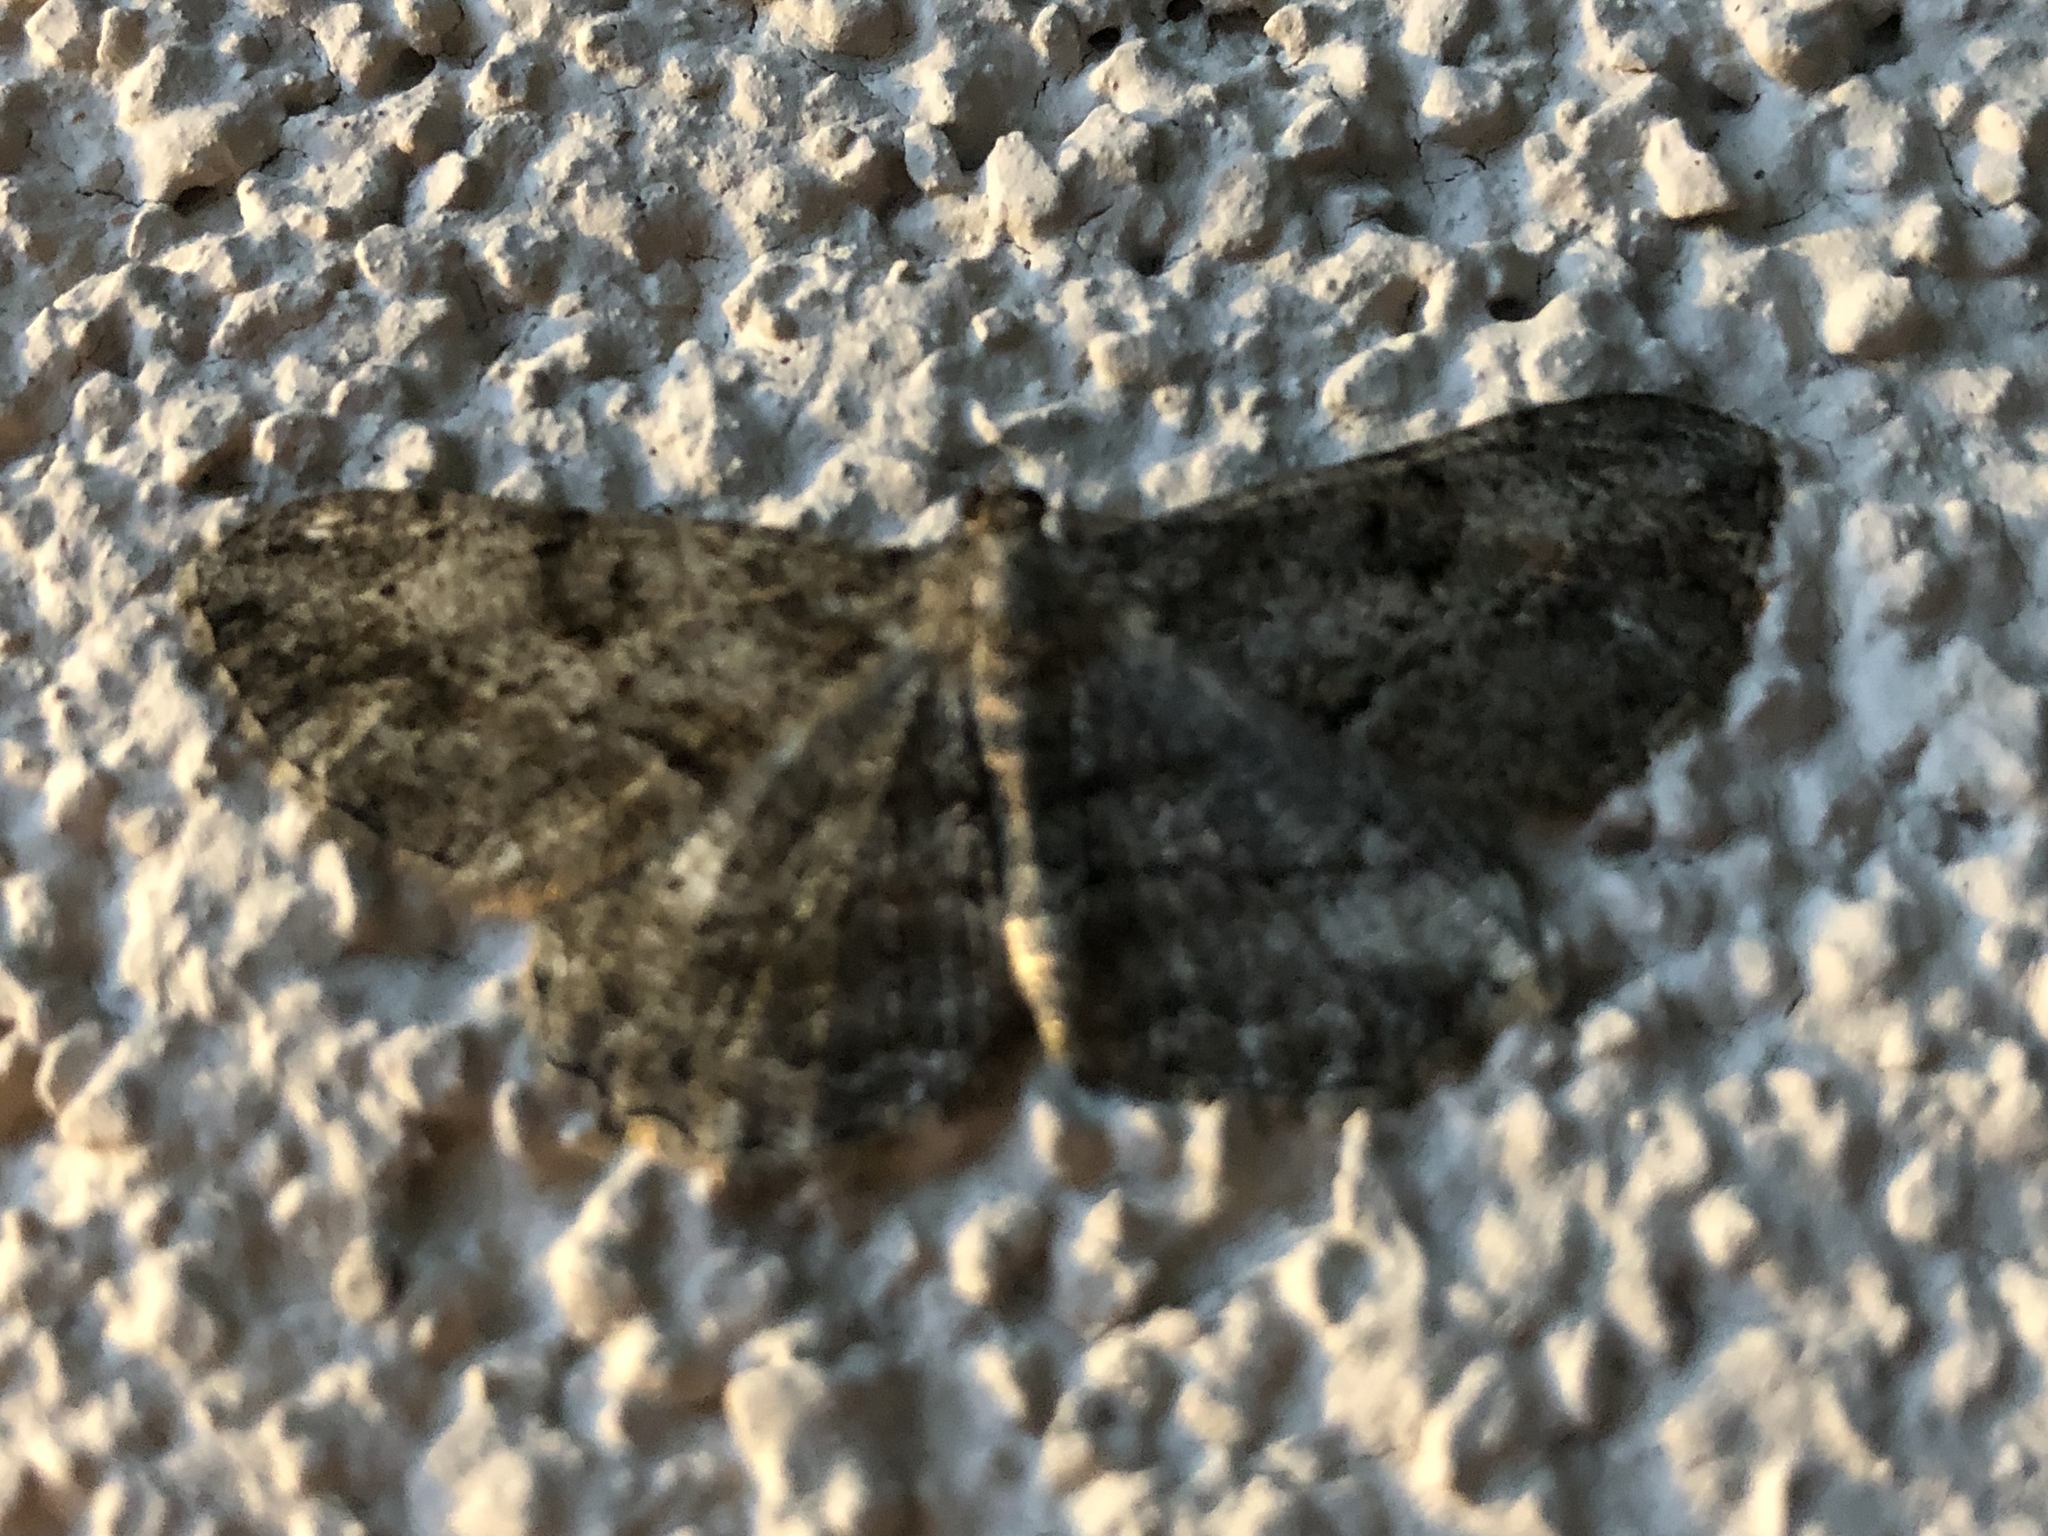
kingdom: Animalia
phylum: Arthropoda
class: Insecta
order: Lepidoptera
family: Geometridae
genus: Peribatodes
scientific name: Peribatodes rhomboidaria
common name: Willow beauty
